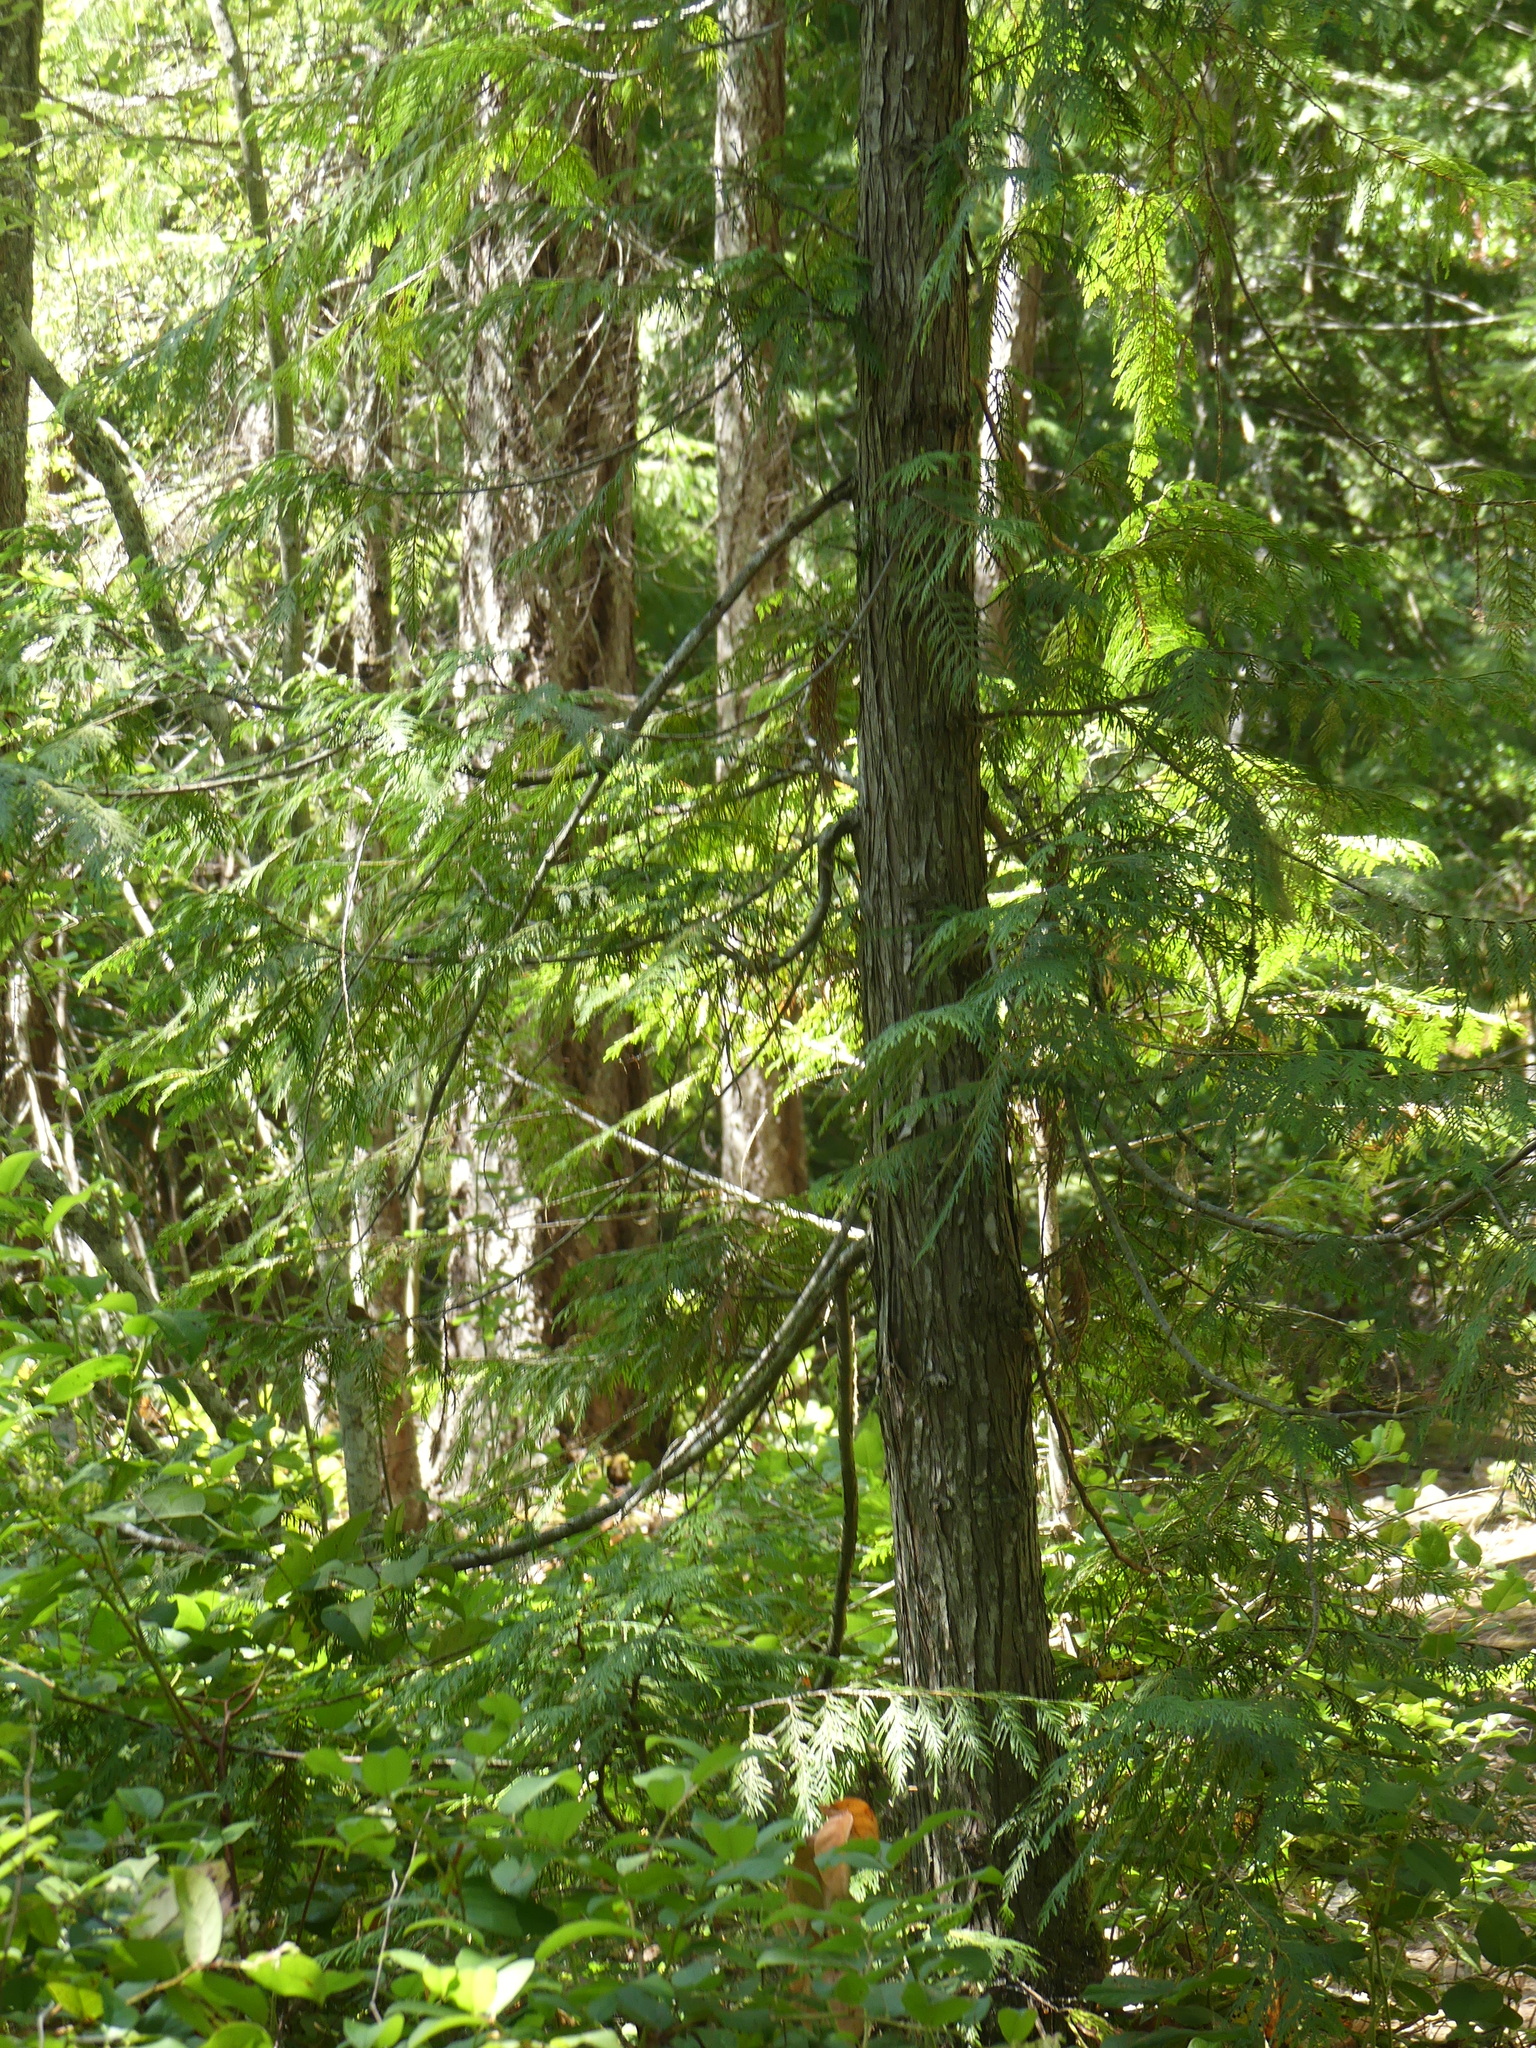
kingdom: Plantae
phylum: Tracheophyta
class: Pinopsida
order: Pinales
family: Cupressaceae
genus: Thuja
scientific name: Thuja plicata
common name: Western red-cedar
